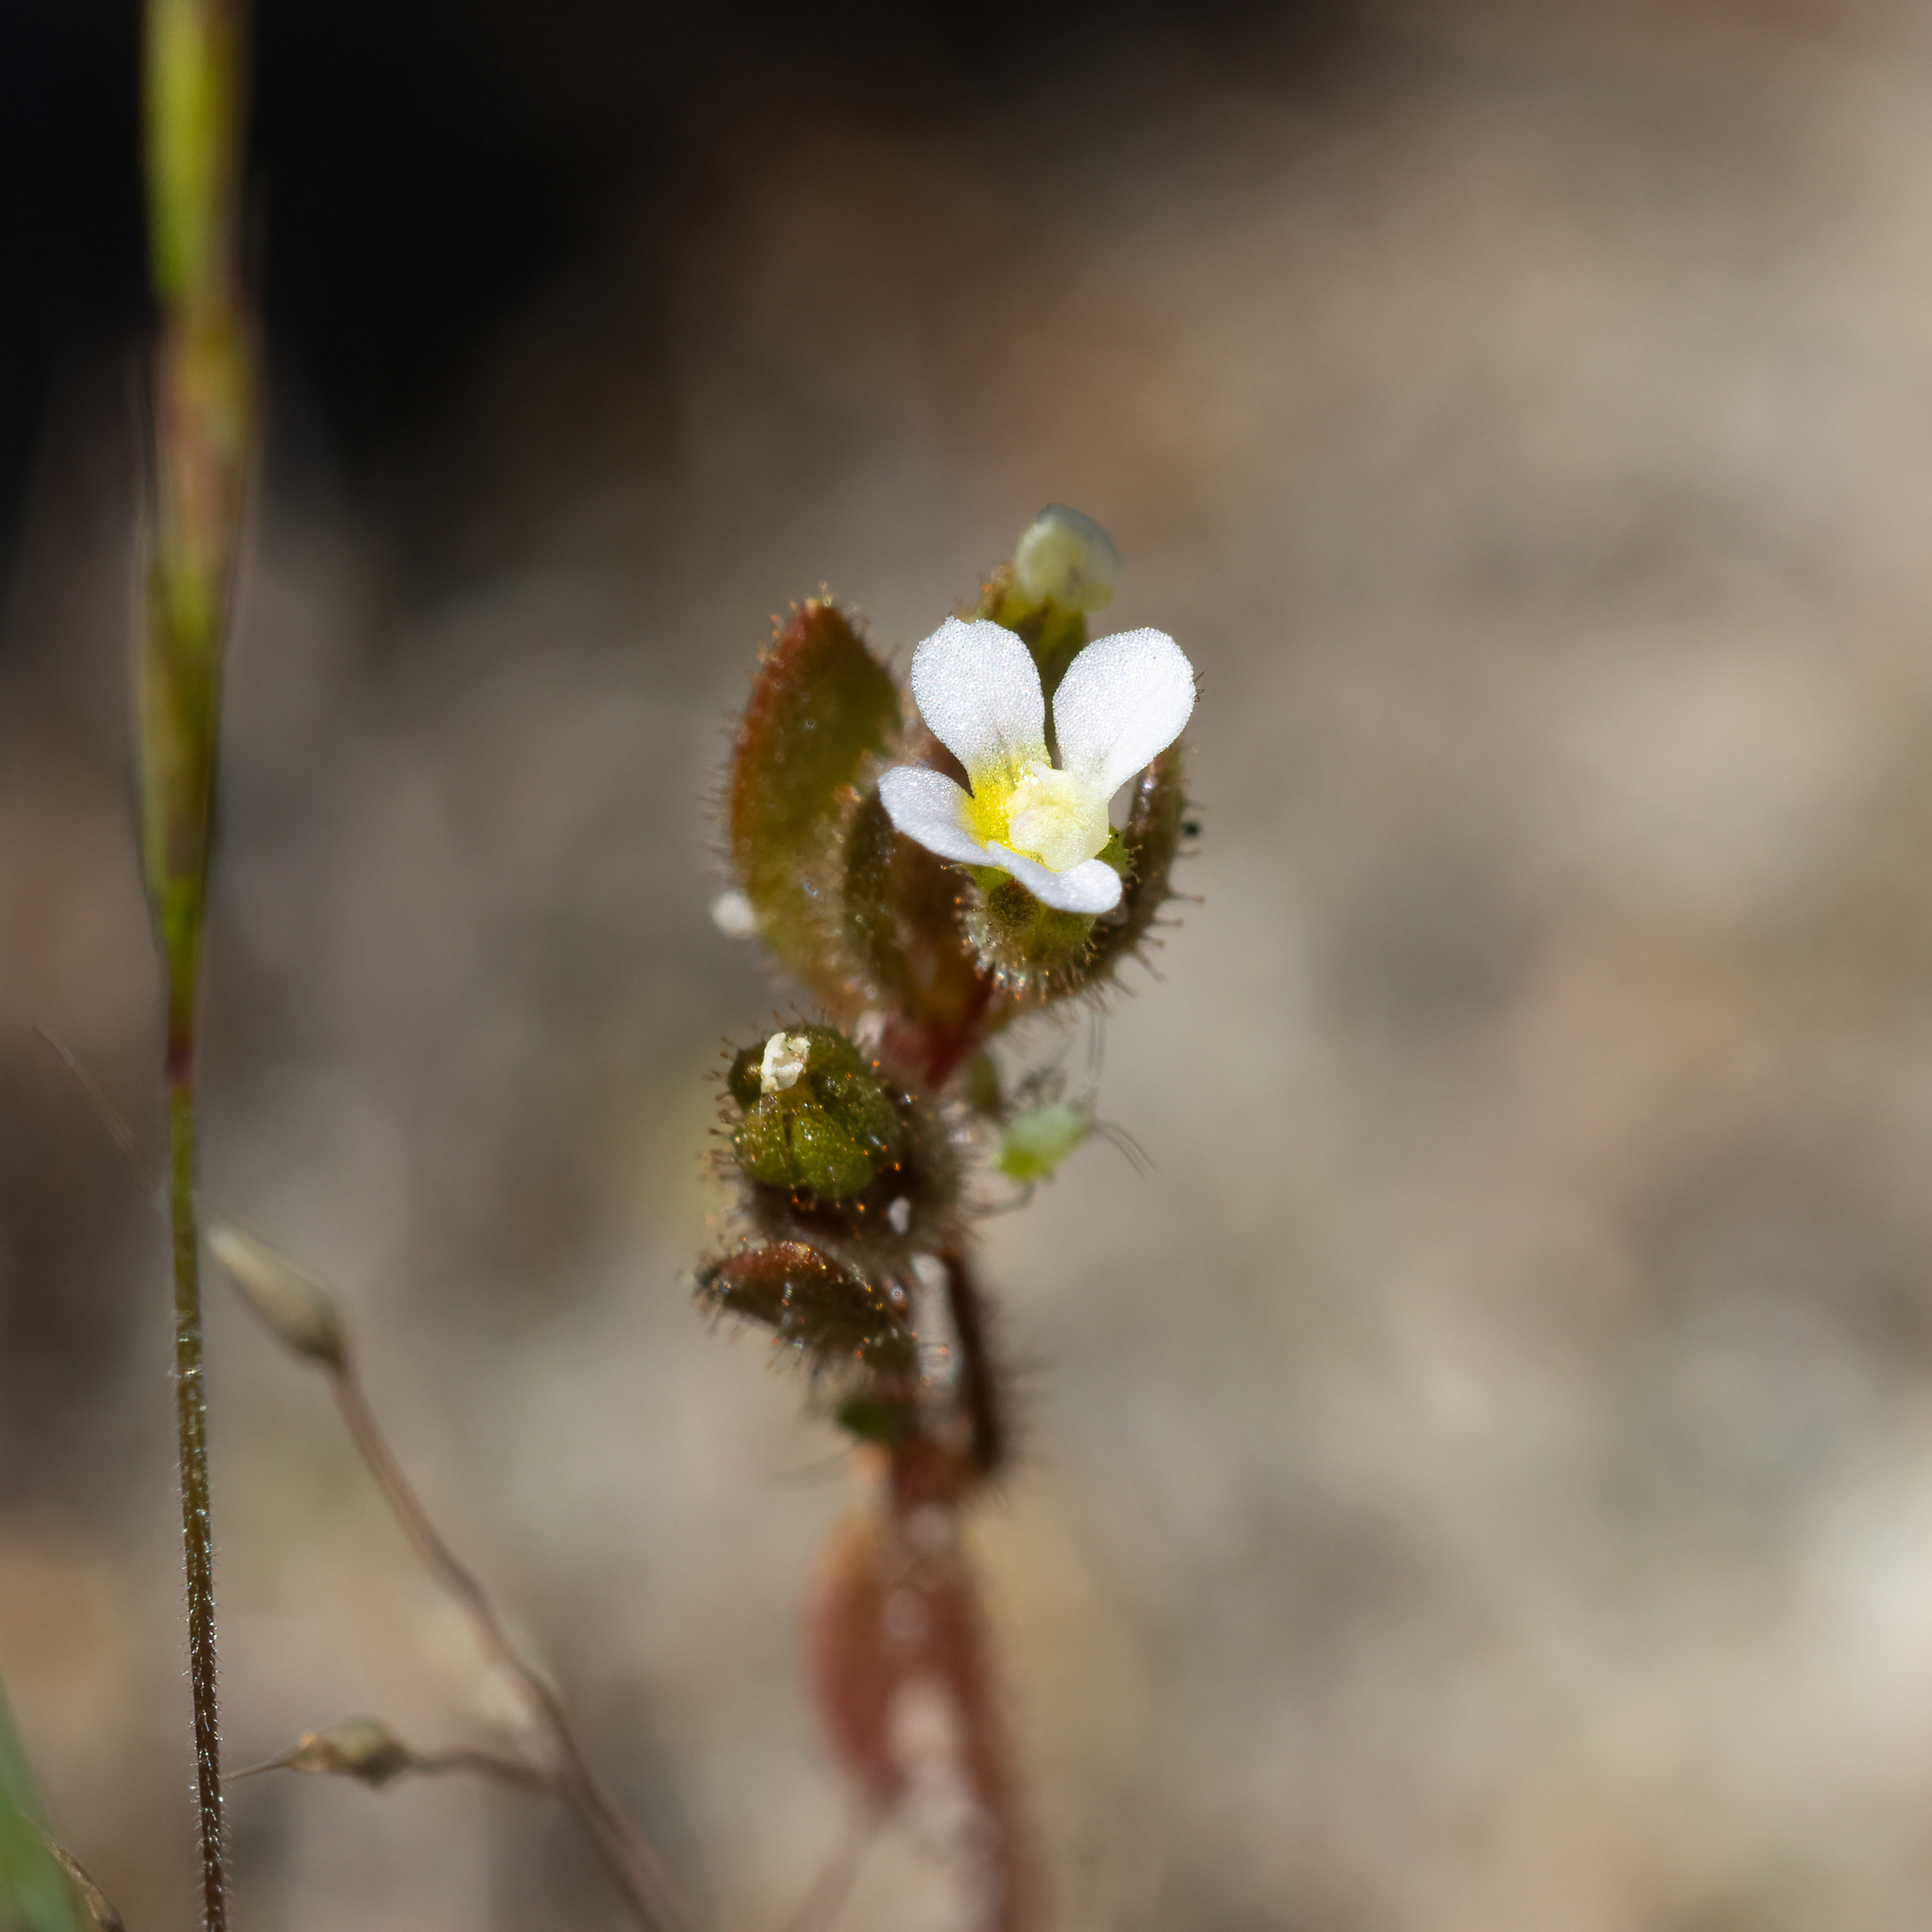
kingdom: Plantae
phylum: Tracheophyta
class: Magnoliopsida
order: Asterales
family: Stylidiaceae
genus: Levenhookia
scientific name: Levenhookia dubia
